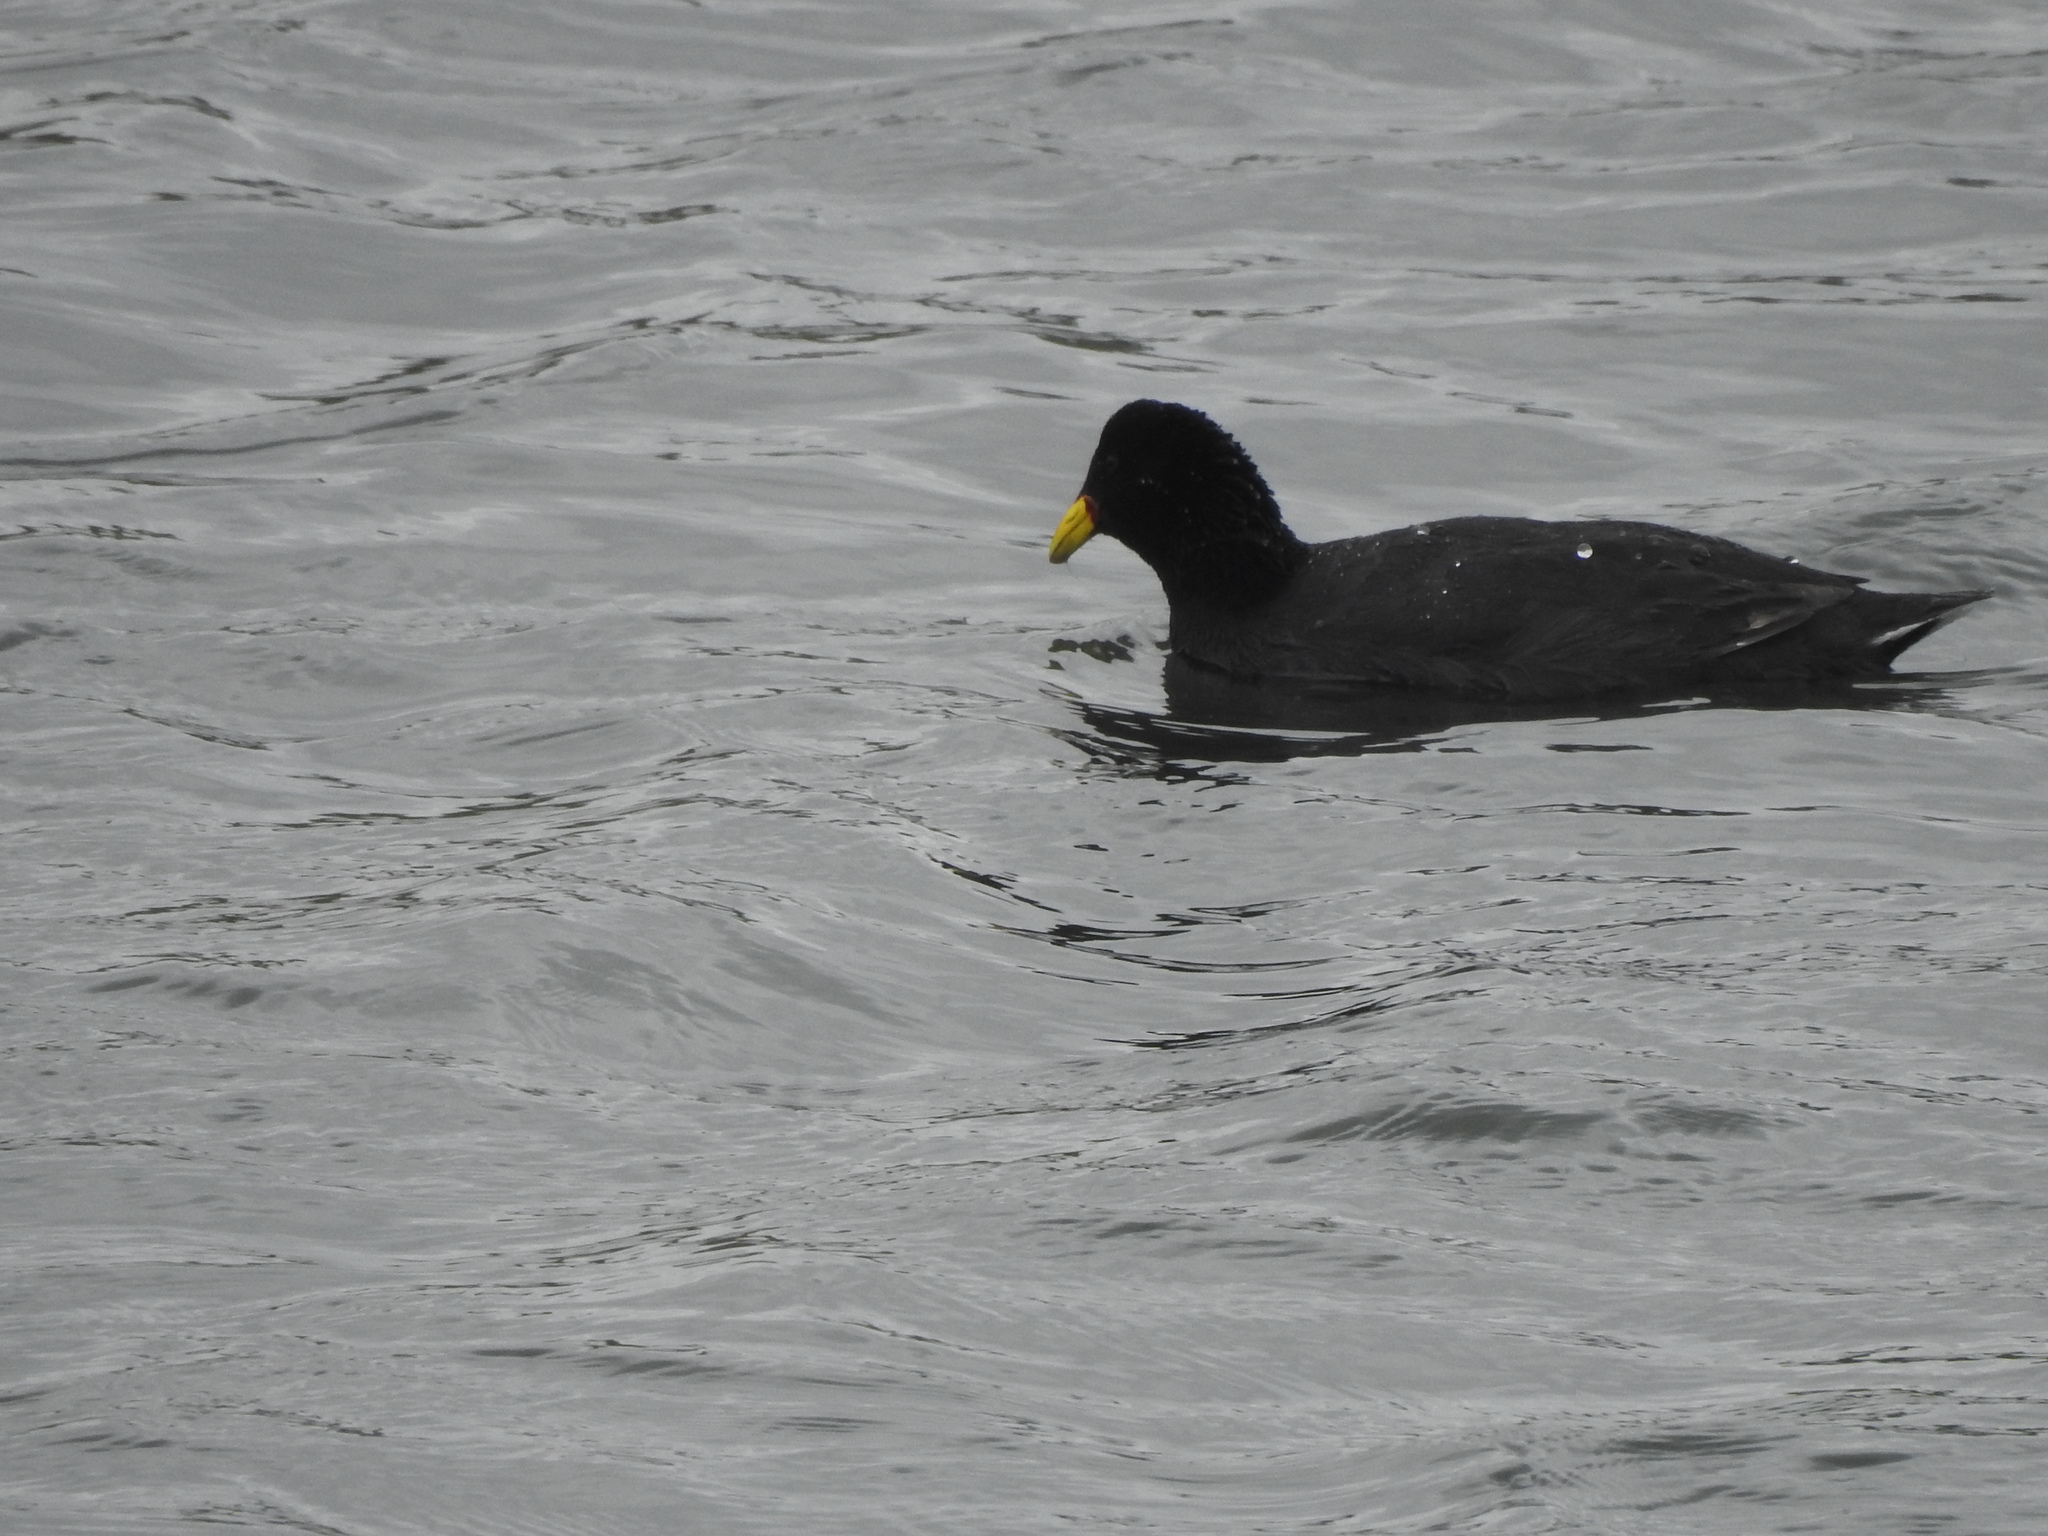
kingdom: Animalia
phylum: Chordata
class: Aves
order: Gruiformes
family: Rallidae
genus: Fulica
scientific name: Fulica rufifrons
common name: Red-fronted coot
